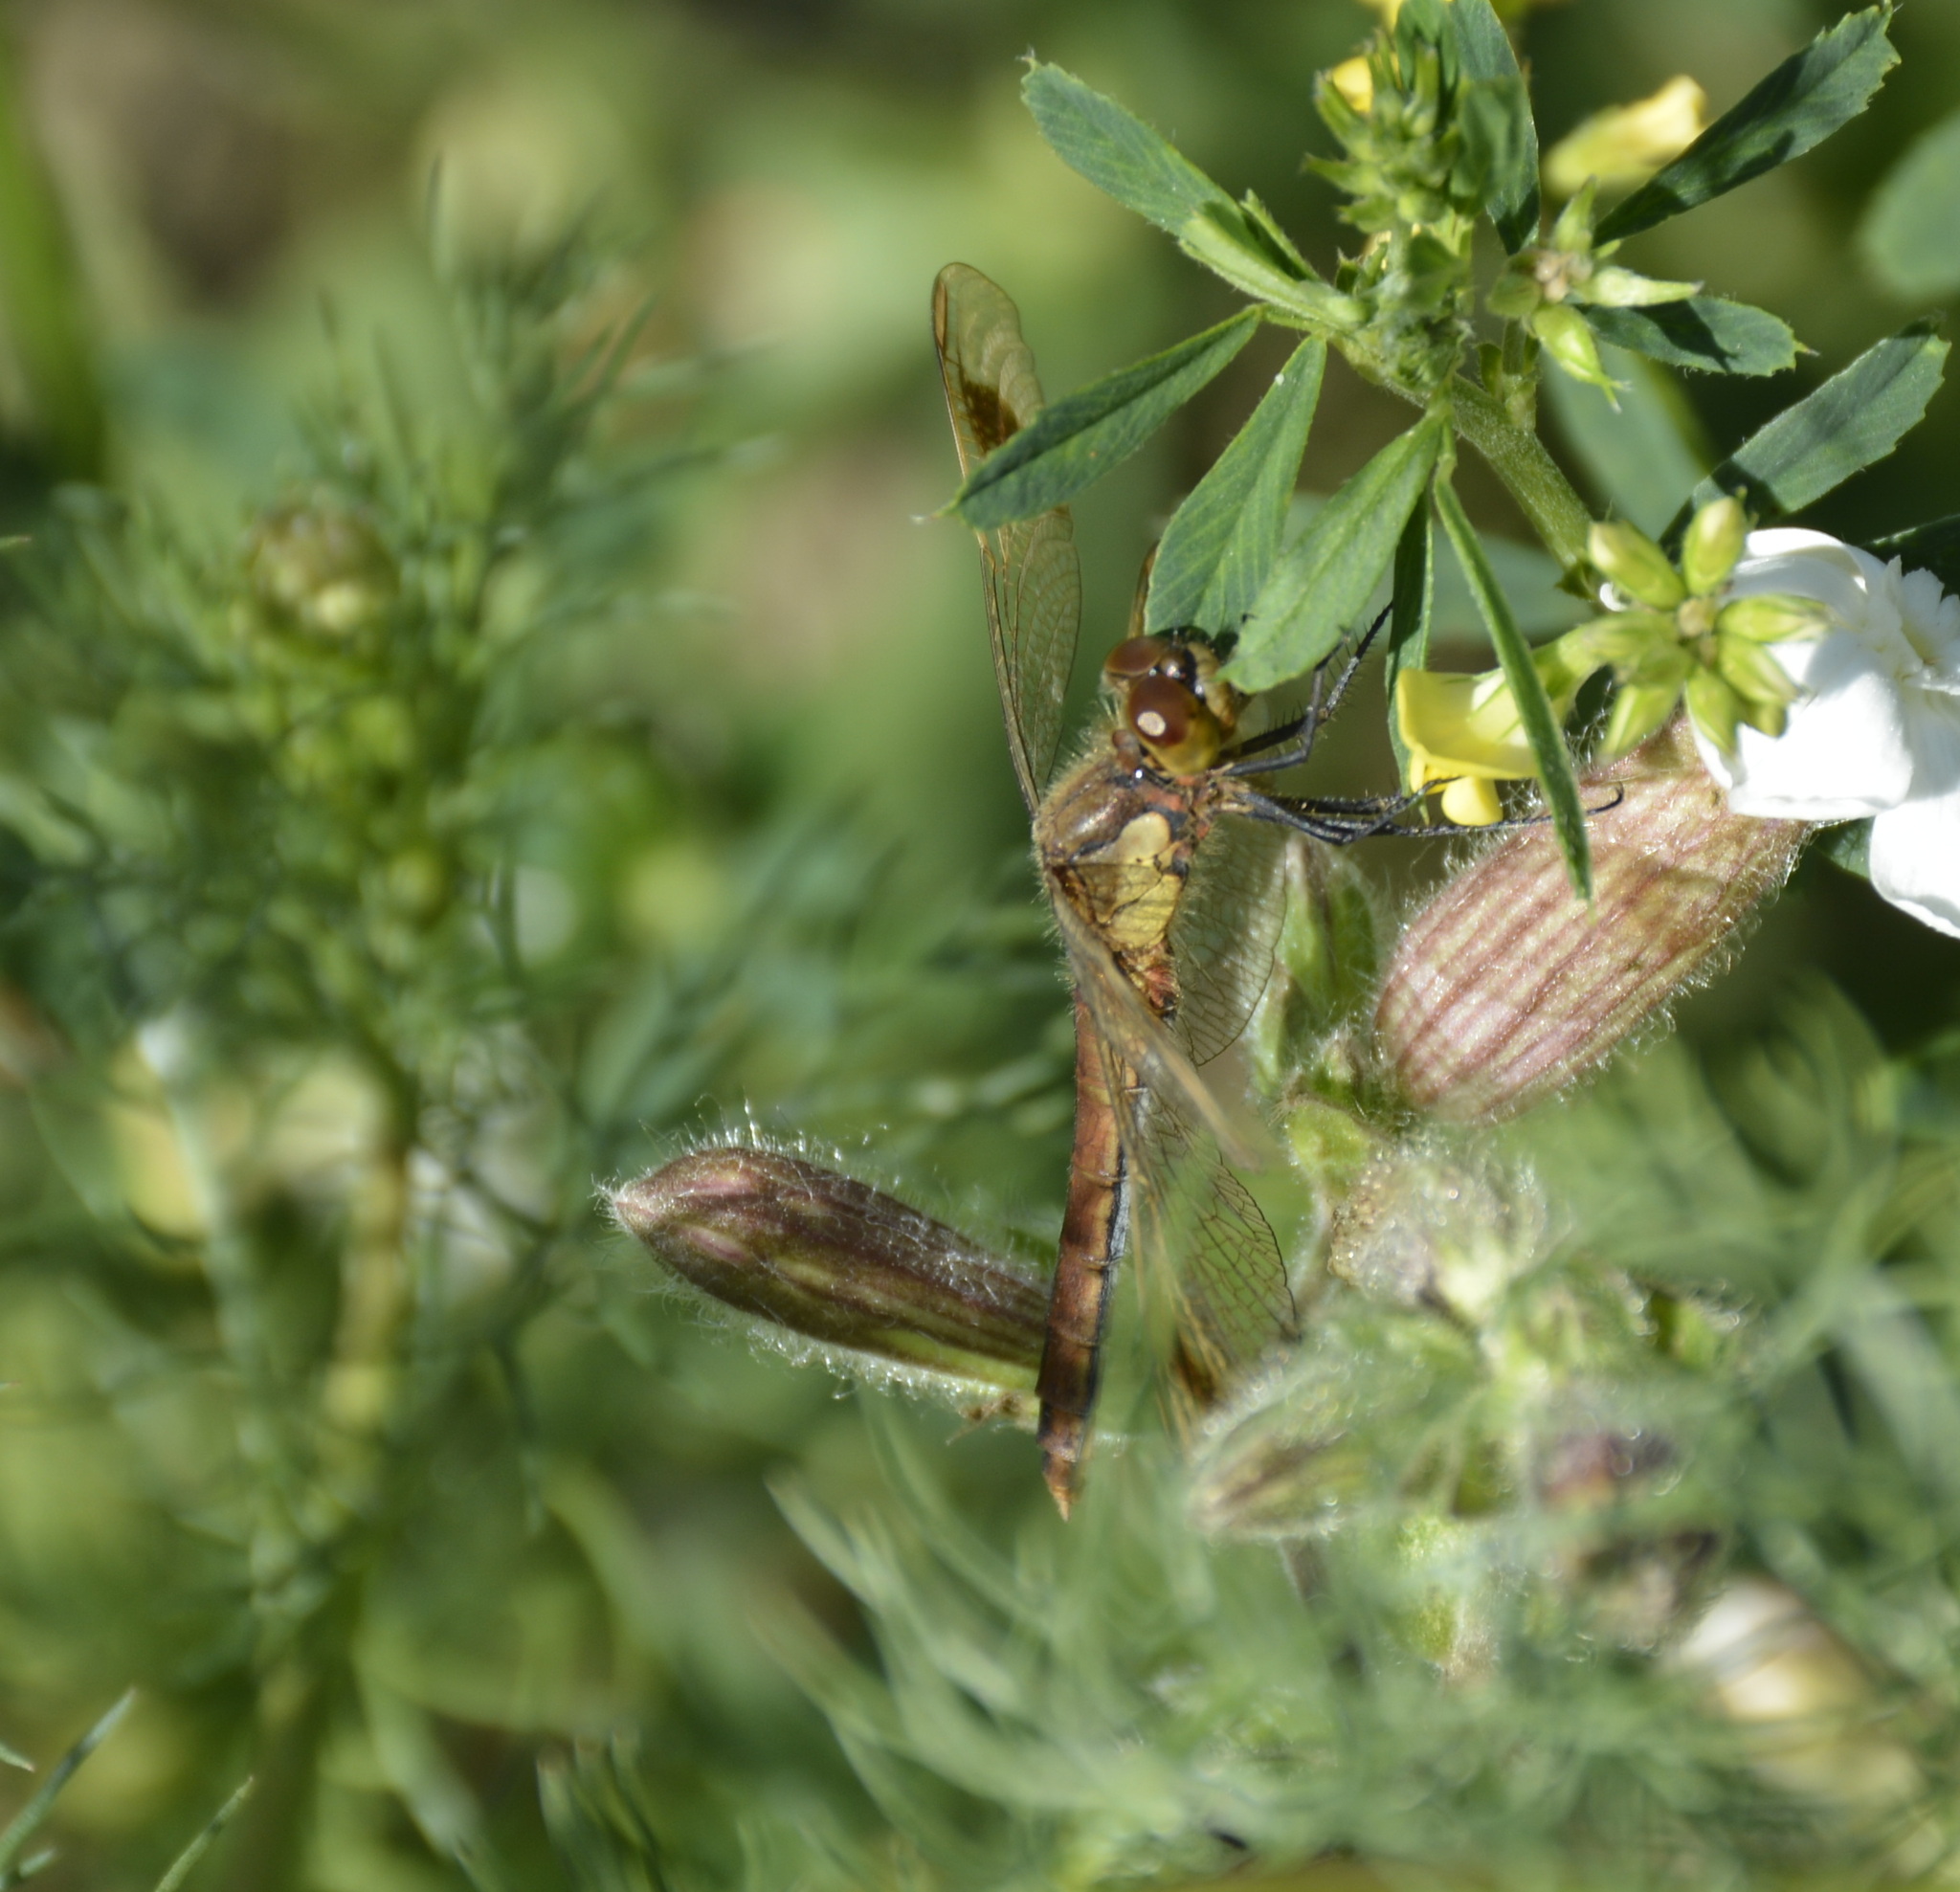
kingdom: Animalia
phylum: Arthropoda
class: Insecta
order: Odonata
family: Libellulidae
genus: Sympetrum
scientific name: Sympetrum pedemontanum
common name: Banded darter
